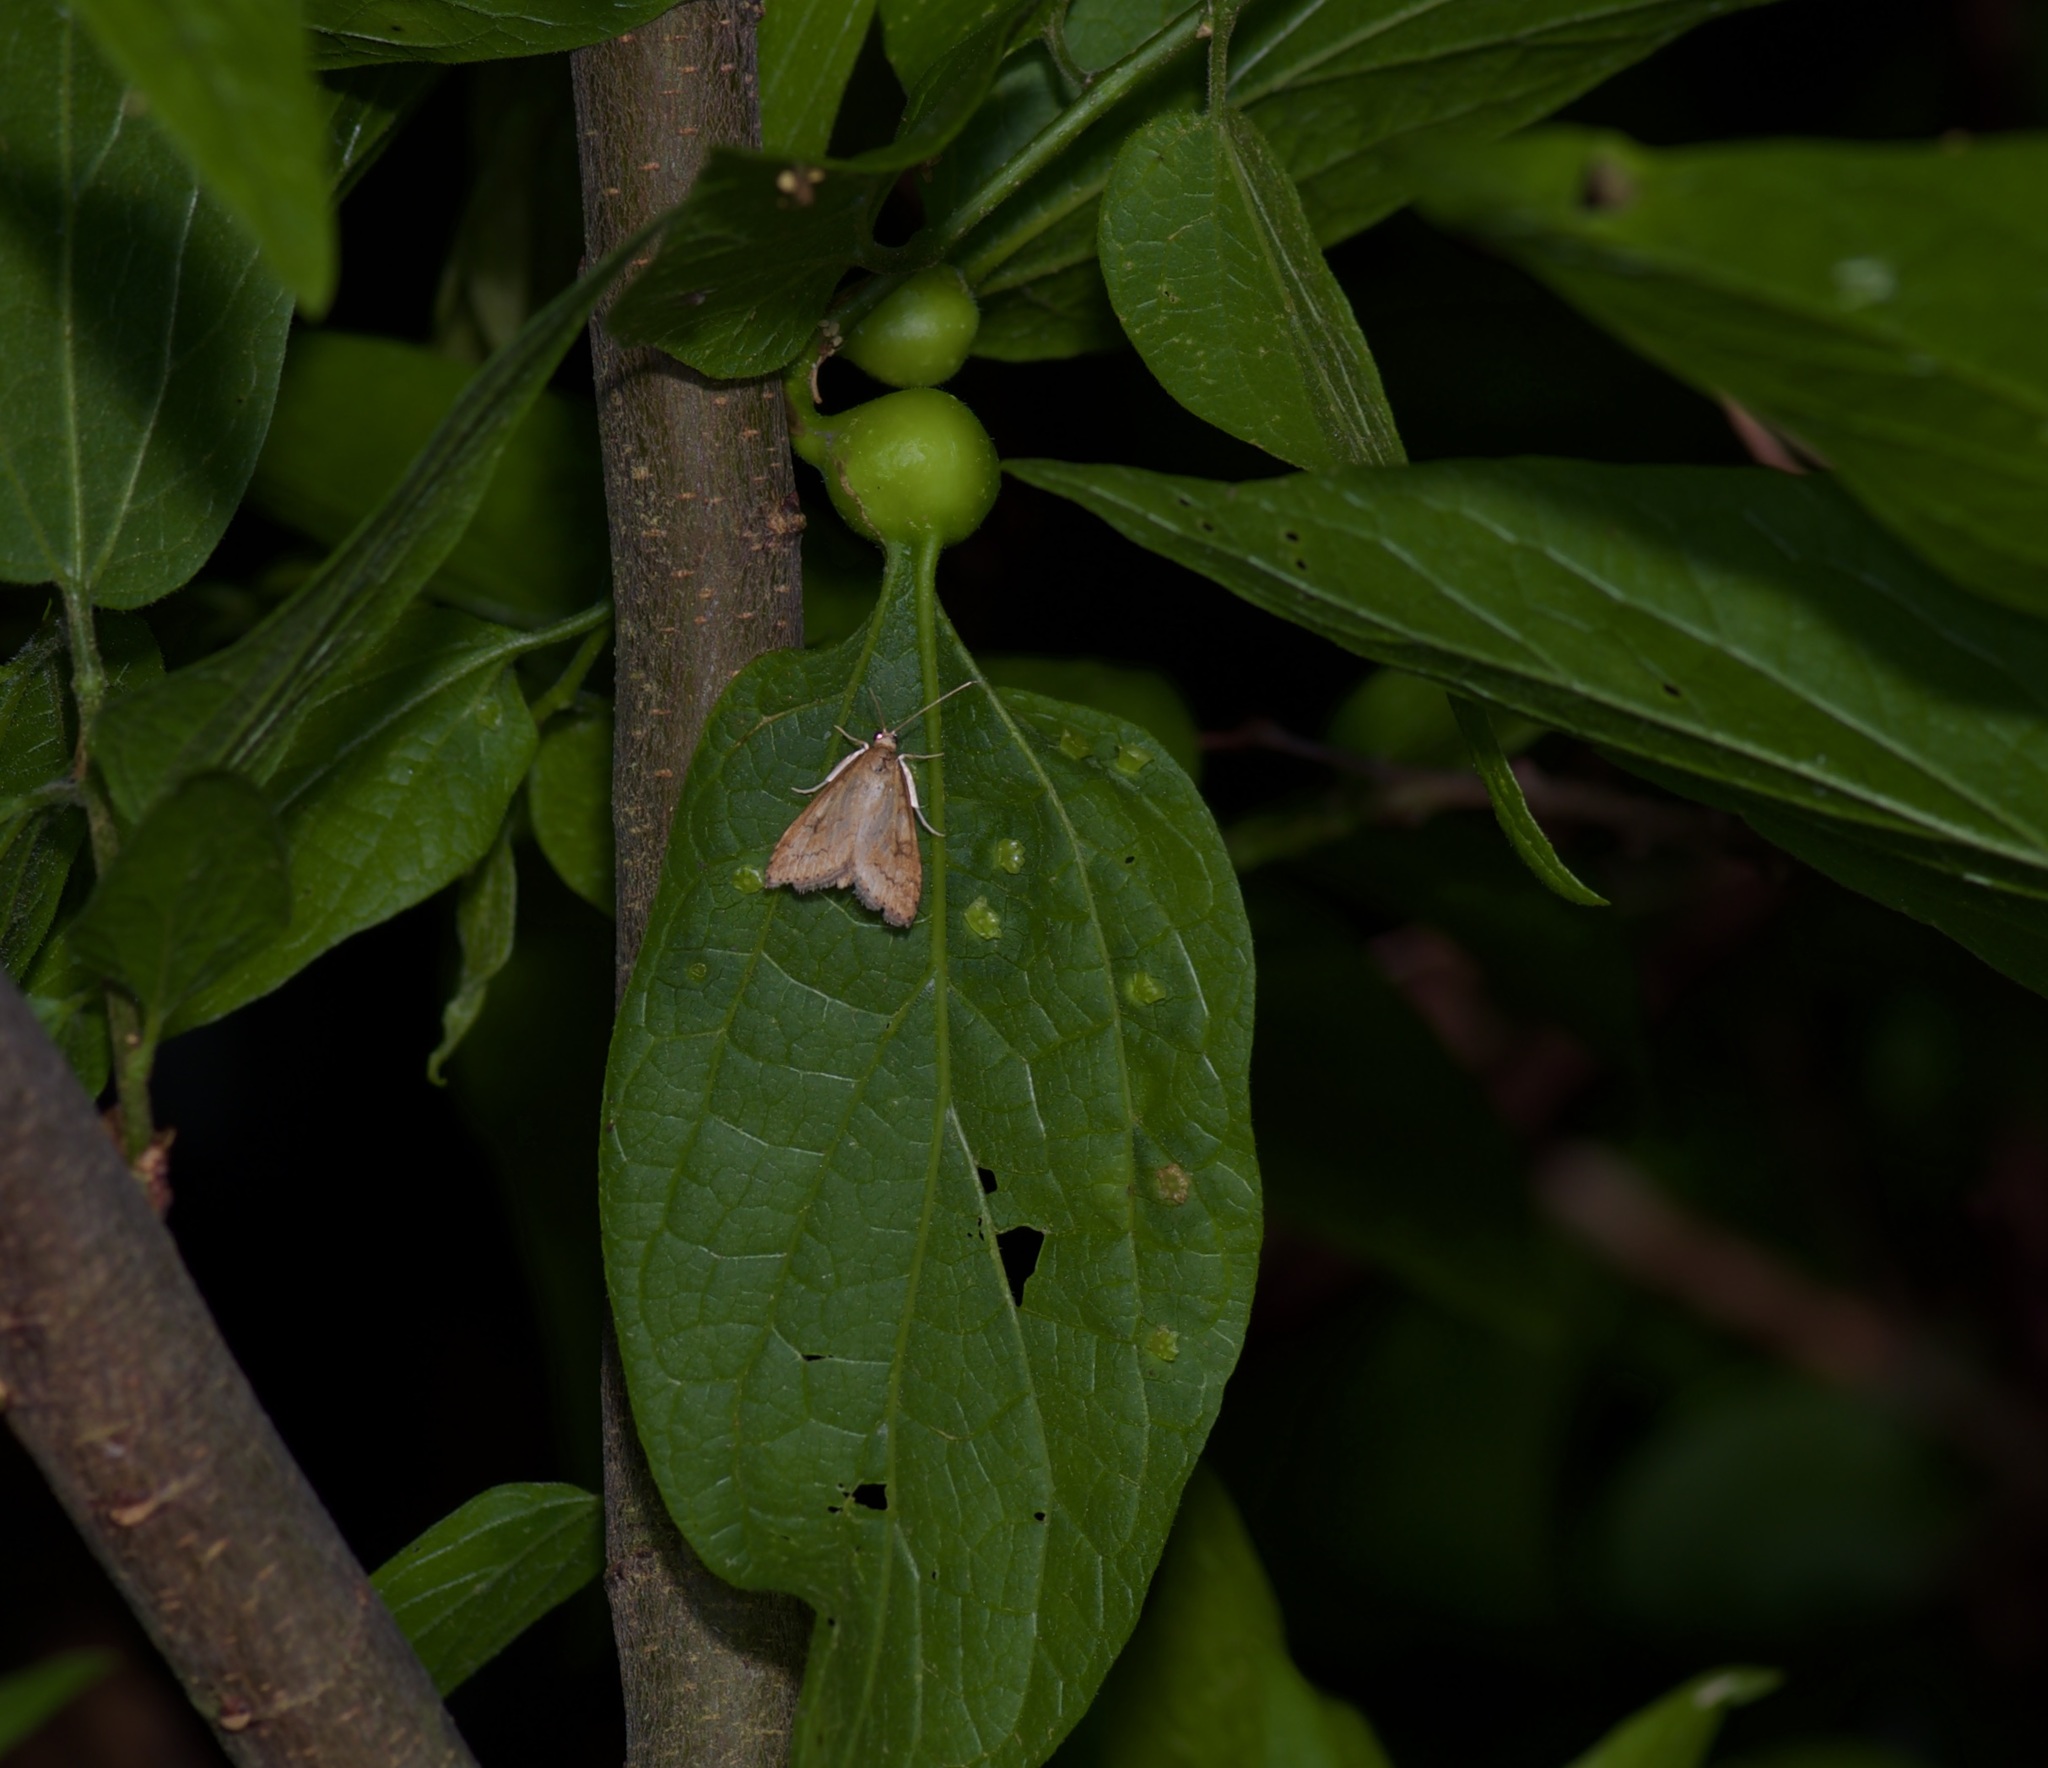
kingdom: Animalia
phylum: Arthropoda
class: Insecta
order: Lepidoptera
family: Crambidae
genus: Udea
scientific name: Udea rubigalis
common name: Celery leaftier moth
